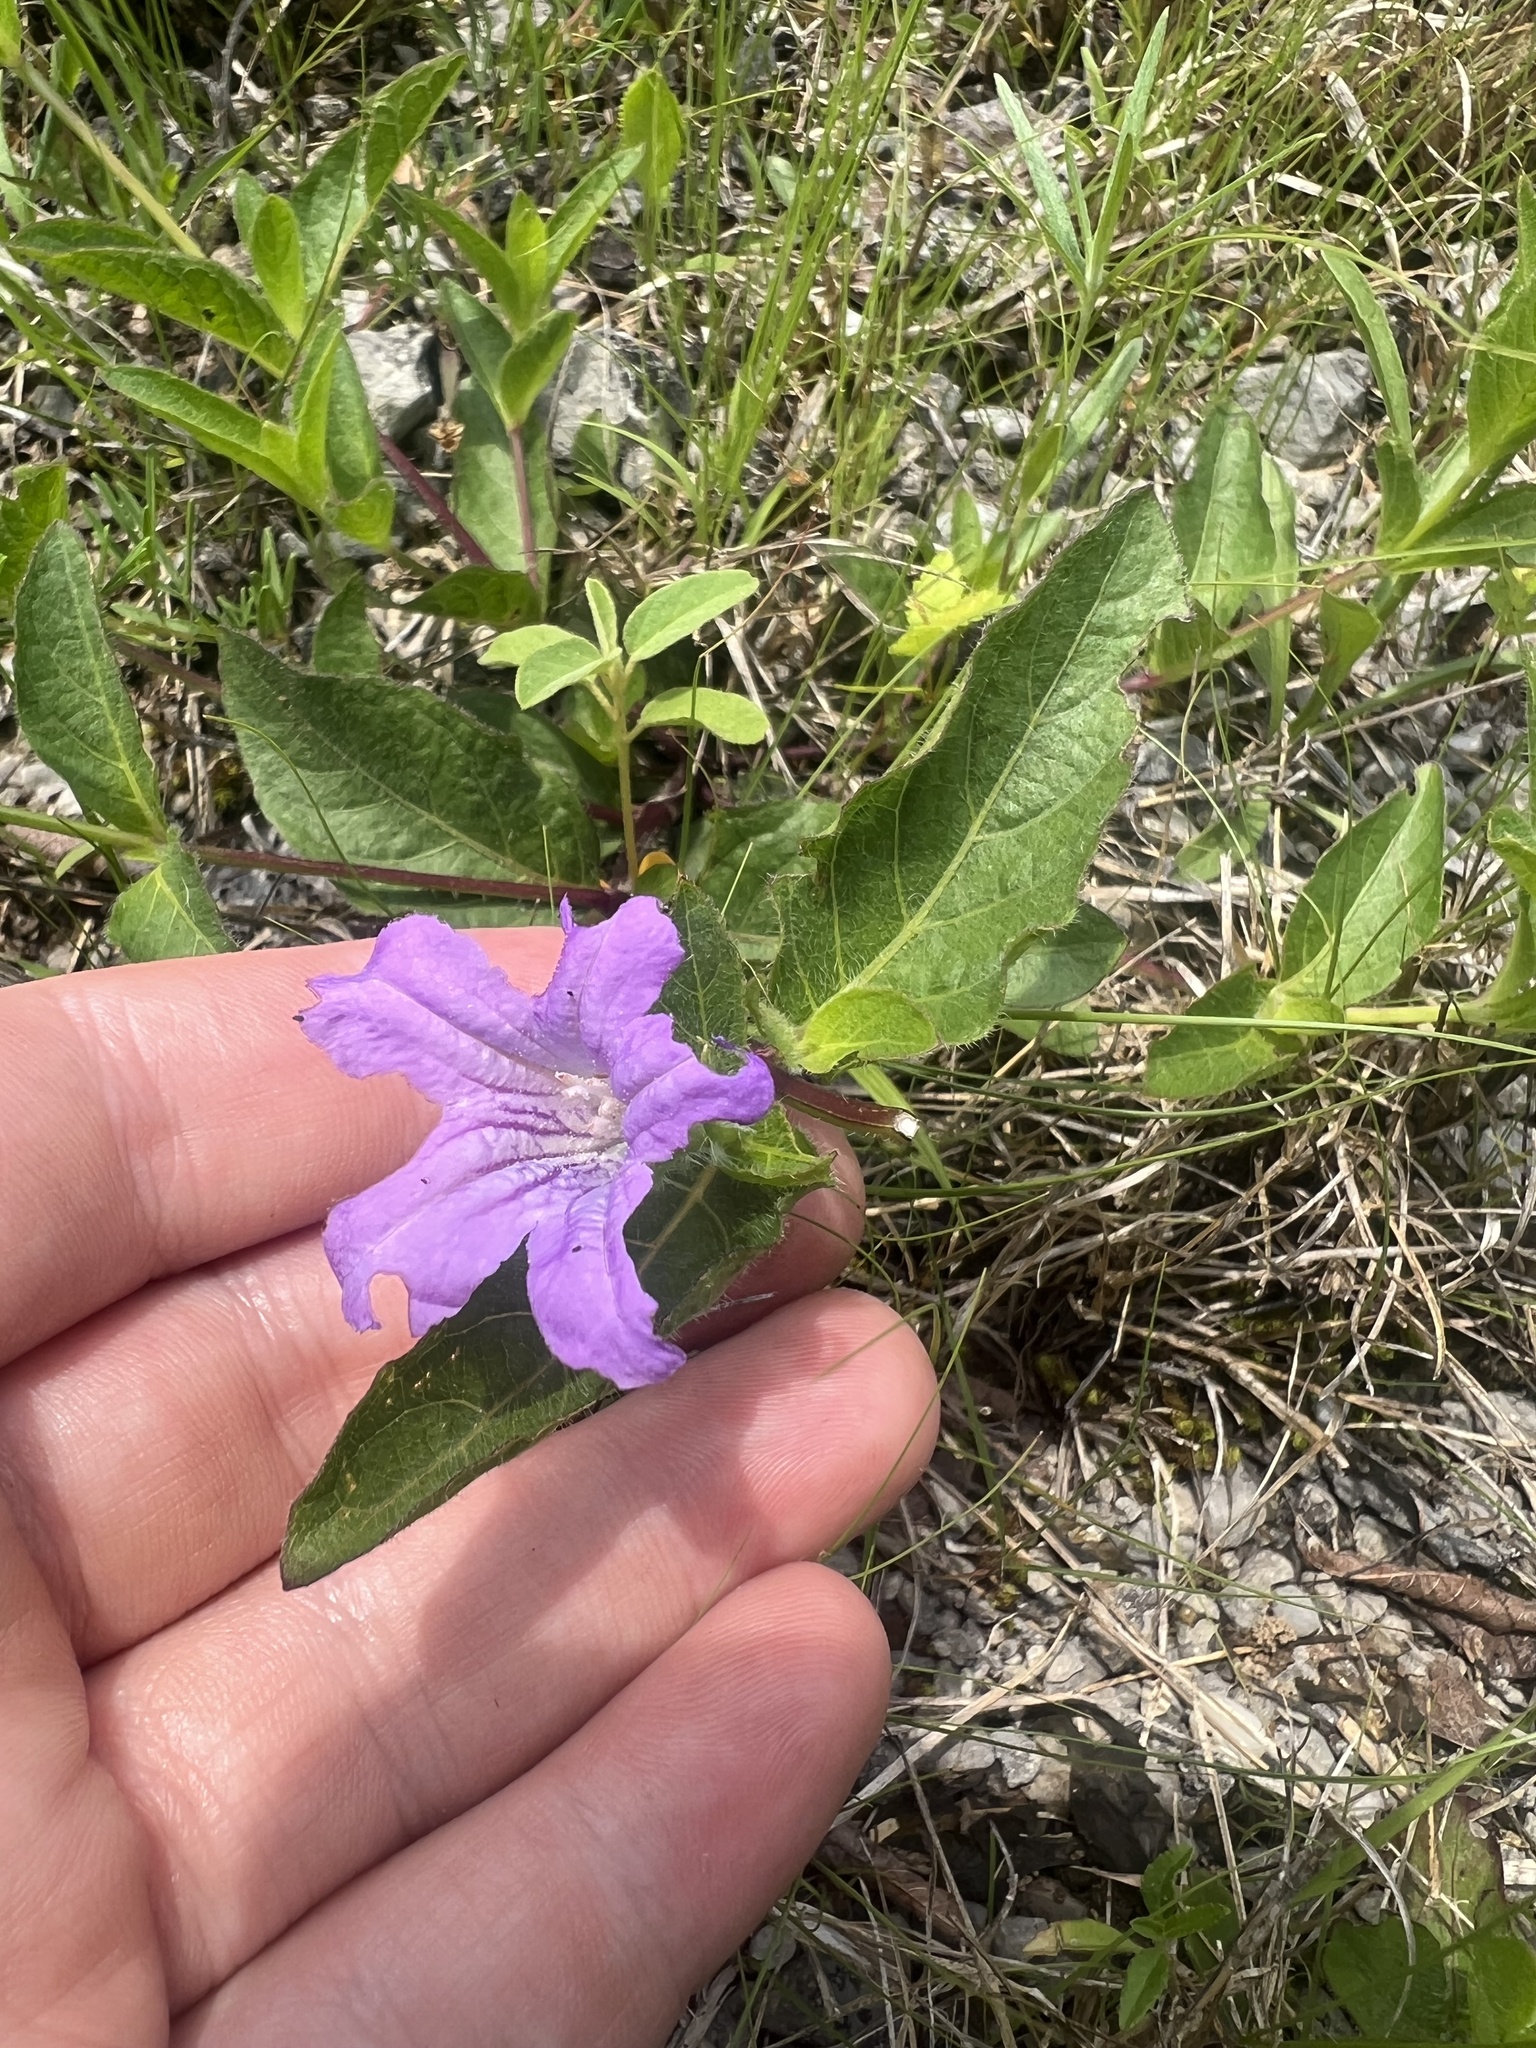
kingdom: Plantae
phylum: Tracheophyta
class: Magnoliopsida
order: Lamiales
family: Acanthaceae
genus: Ruellia
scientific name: Ruellia humilis
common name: Fringe-leaf ruellia
